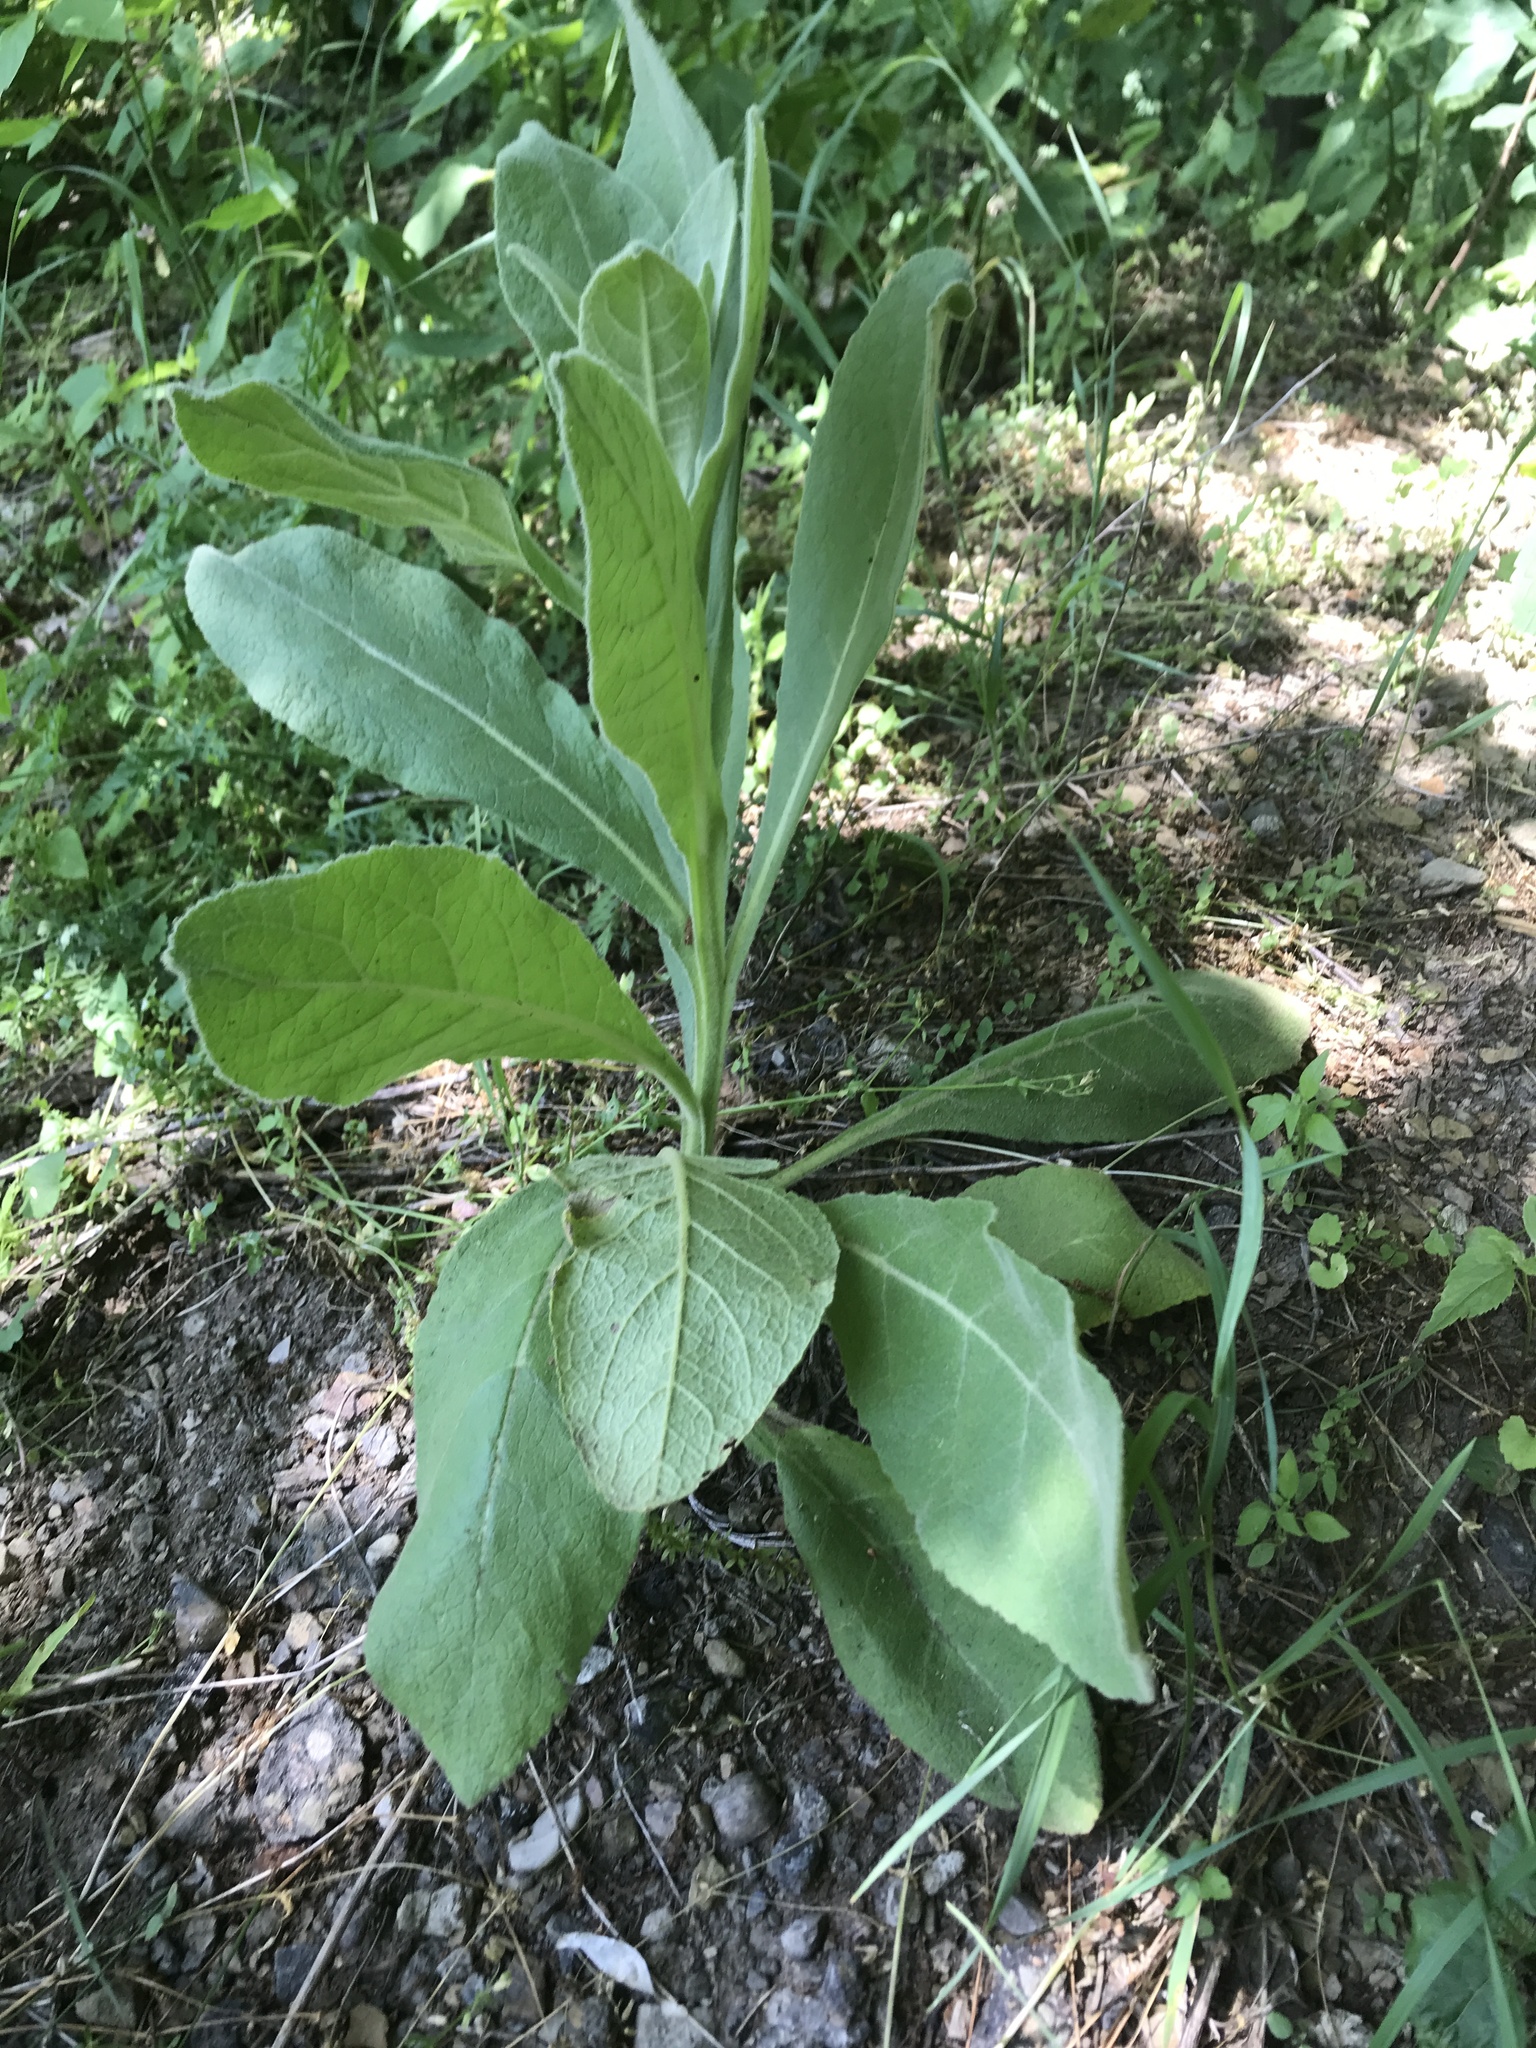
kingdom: Plantae
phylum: Tracheophyta
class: Magnoliopsida
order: Lamiales
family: Scrophulariaceae
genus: Verbascum
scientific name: Verbascum thapsus
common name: Common mullein
